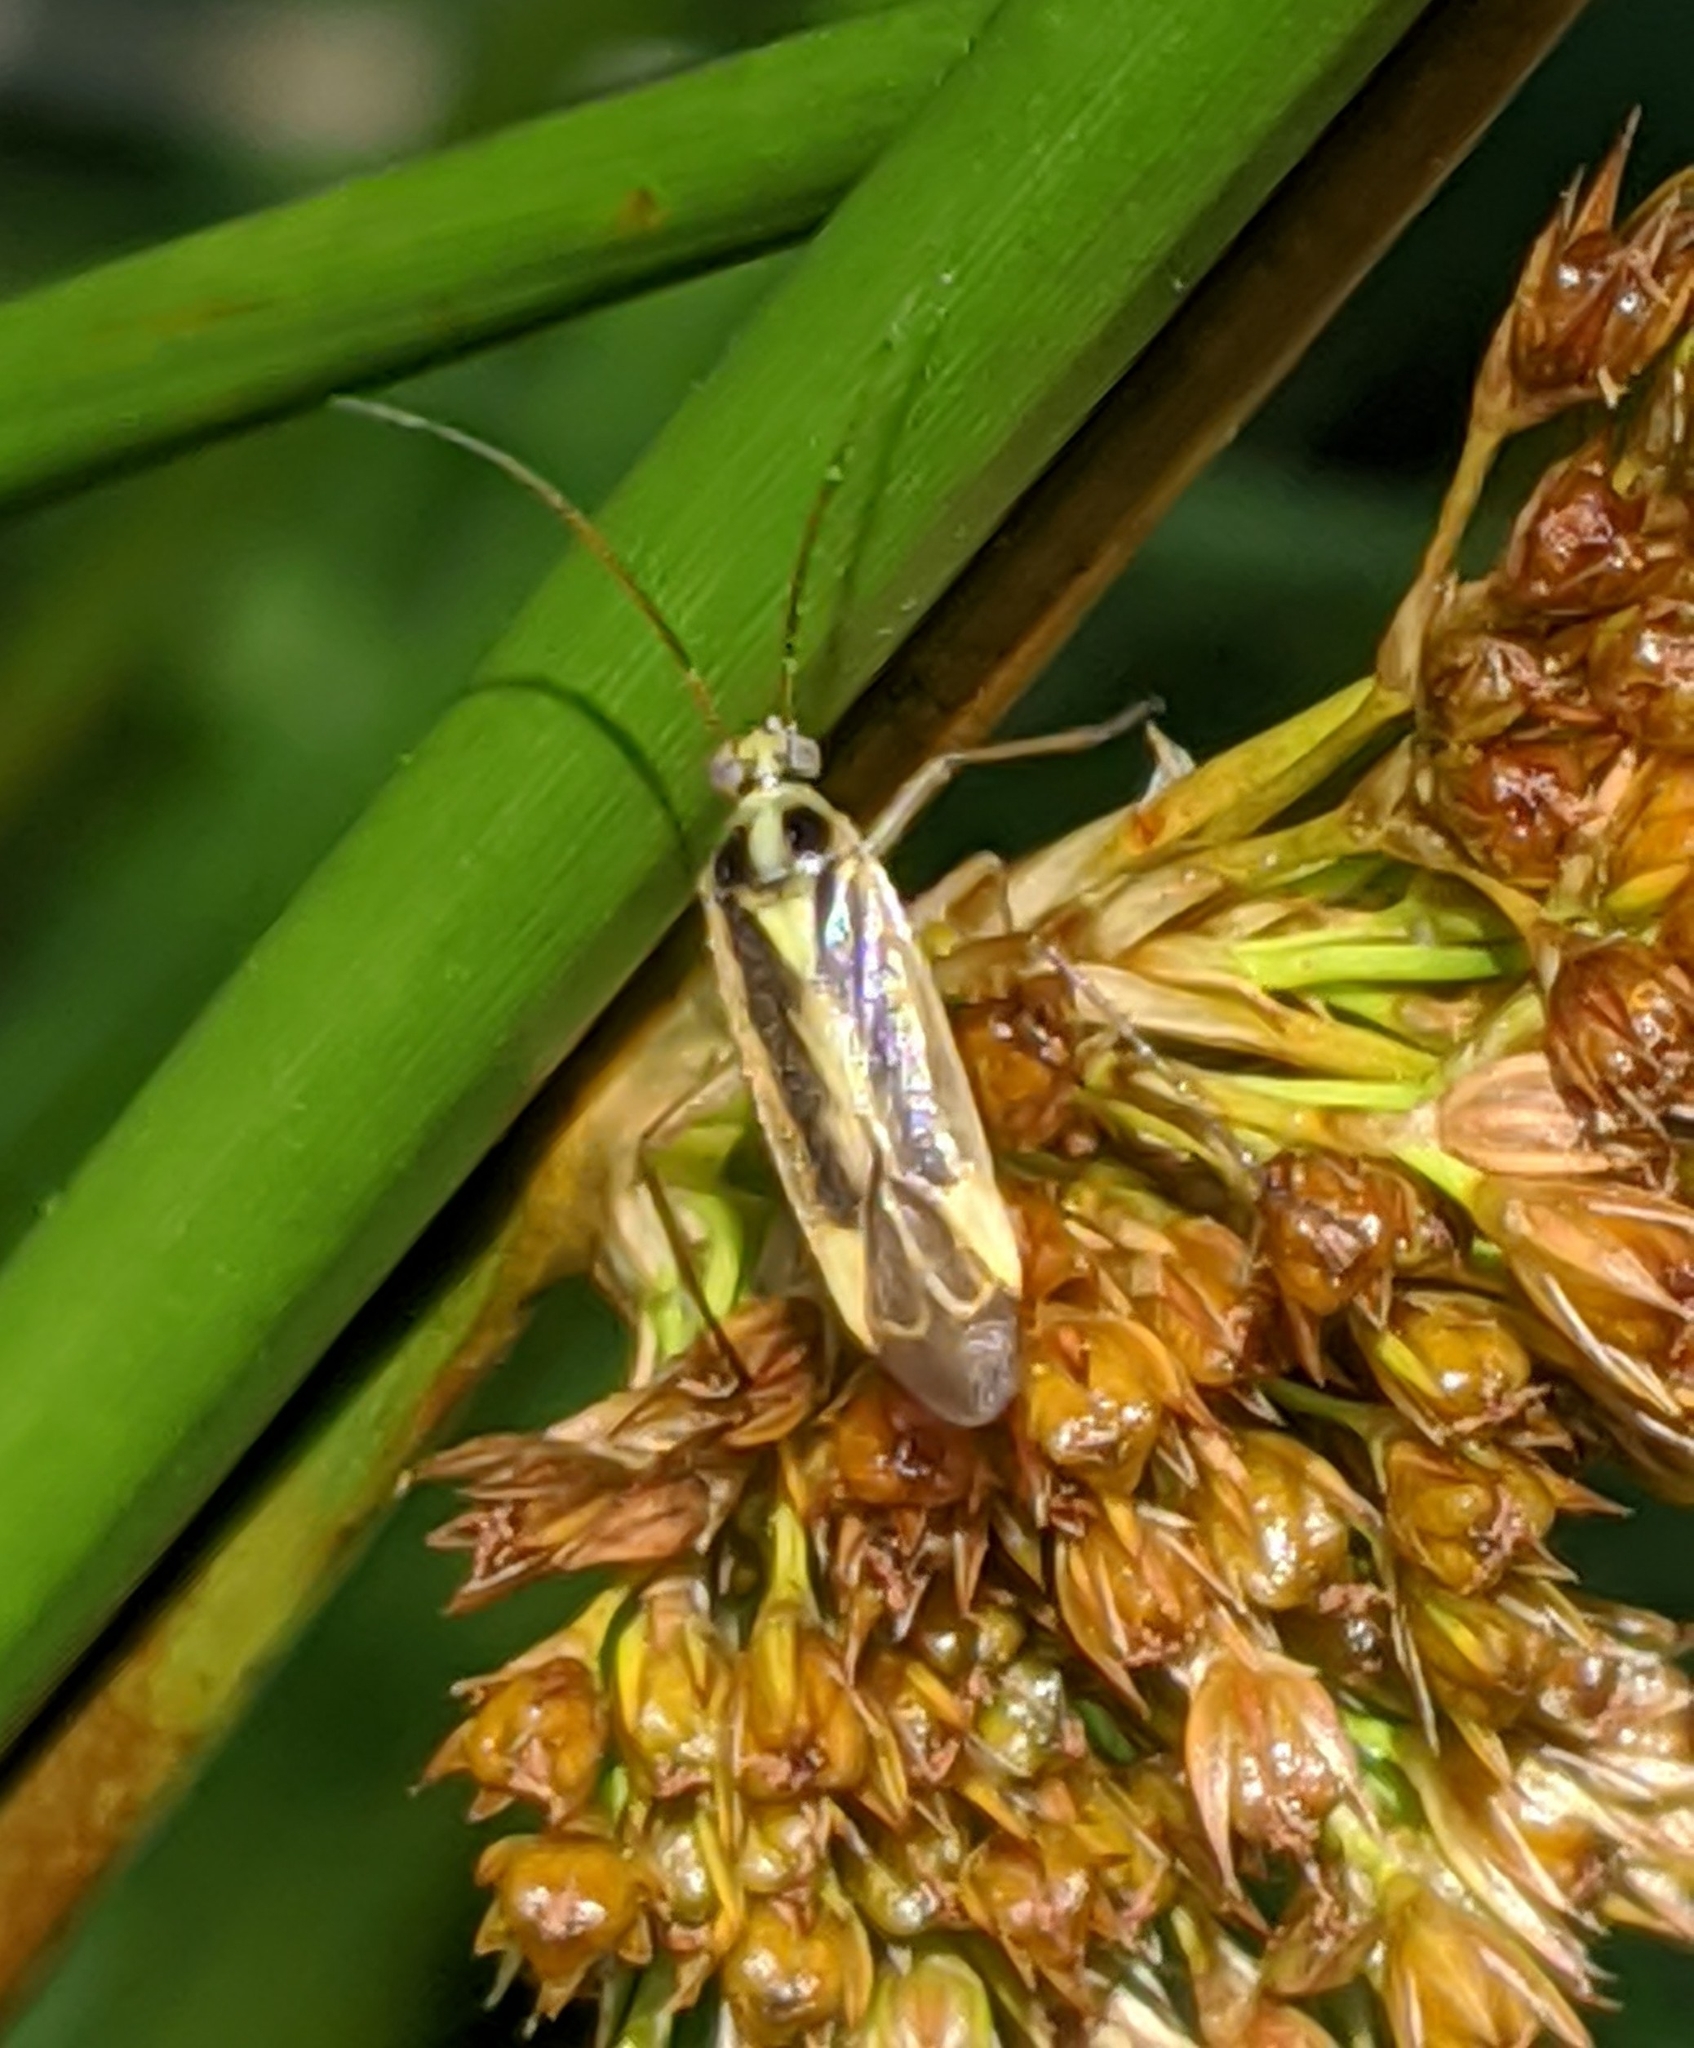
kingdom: Animalia
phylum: Arthropoda
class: Insecta
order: Hemiptera
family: Miridae
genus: Stenotus
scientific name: Stenotus binotatus
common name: Plant bug
